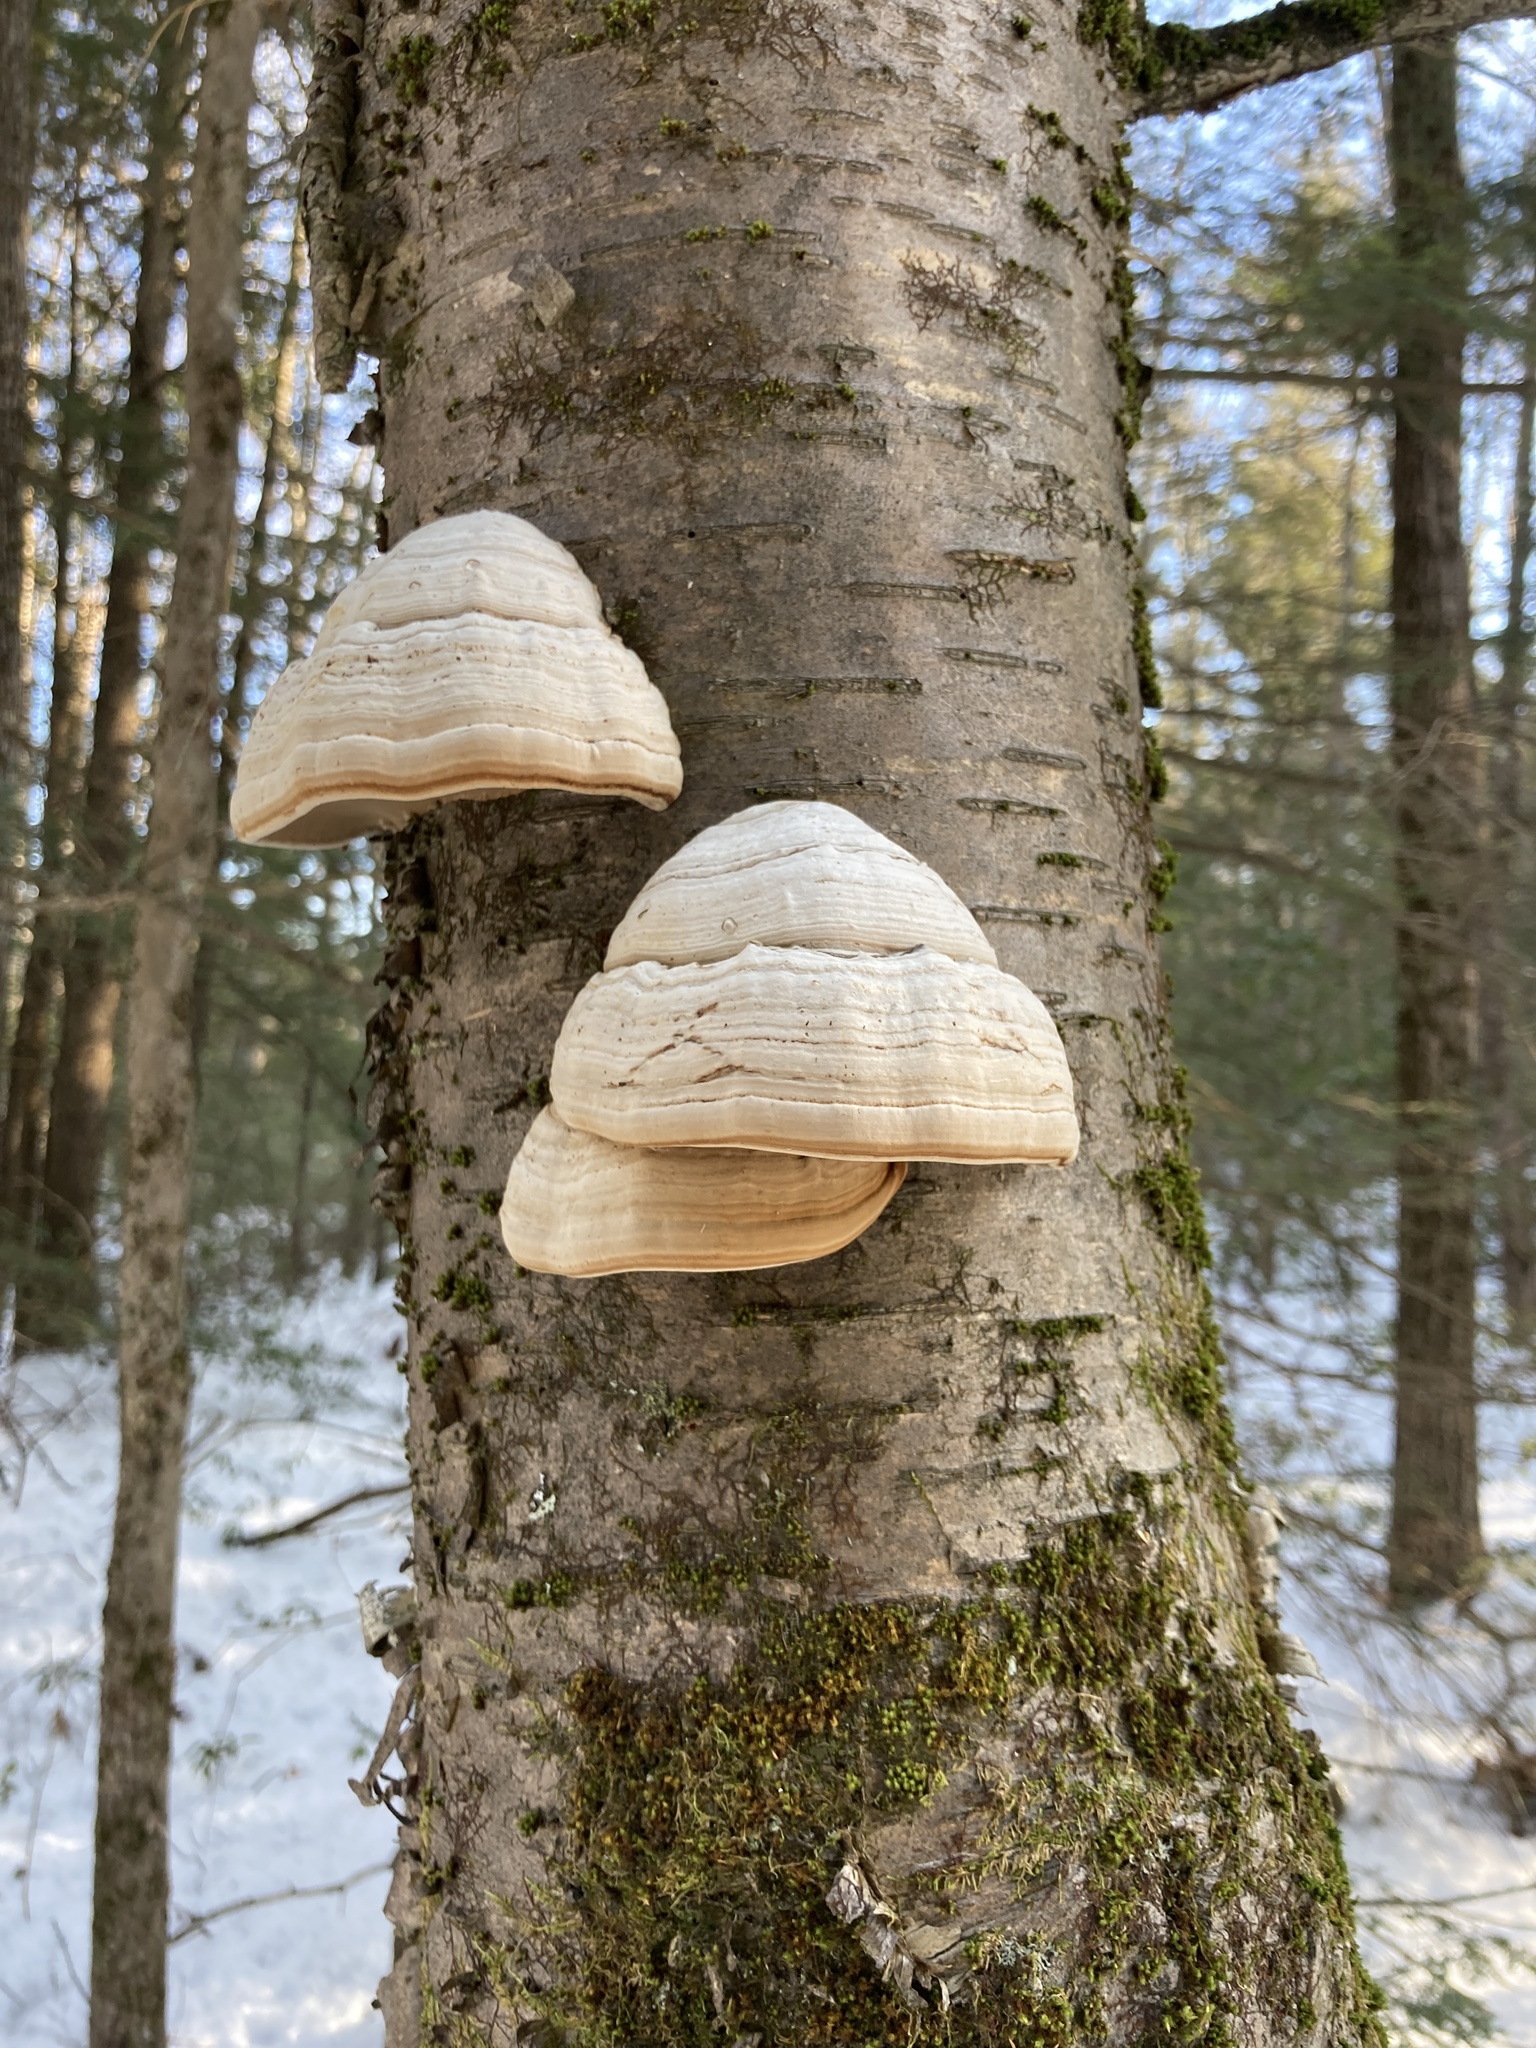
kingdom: Fungi
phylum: Basidiomycota
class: Agaricomycetes
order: Polyporales
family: Polyporaceae
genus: Fomes
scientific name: Fomes fomentarius
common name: Hoof fungus
